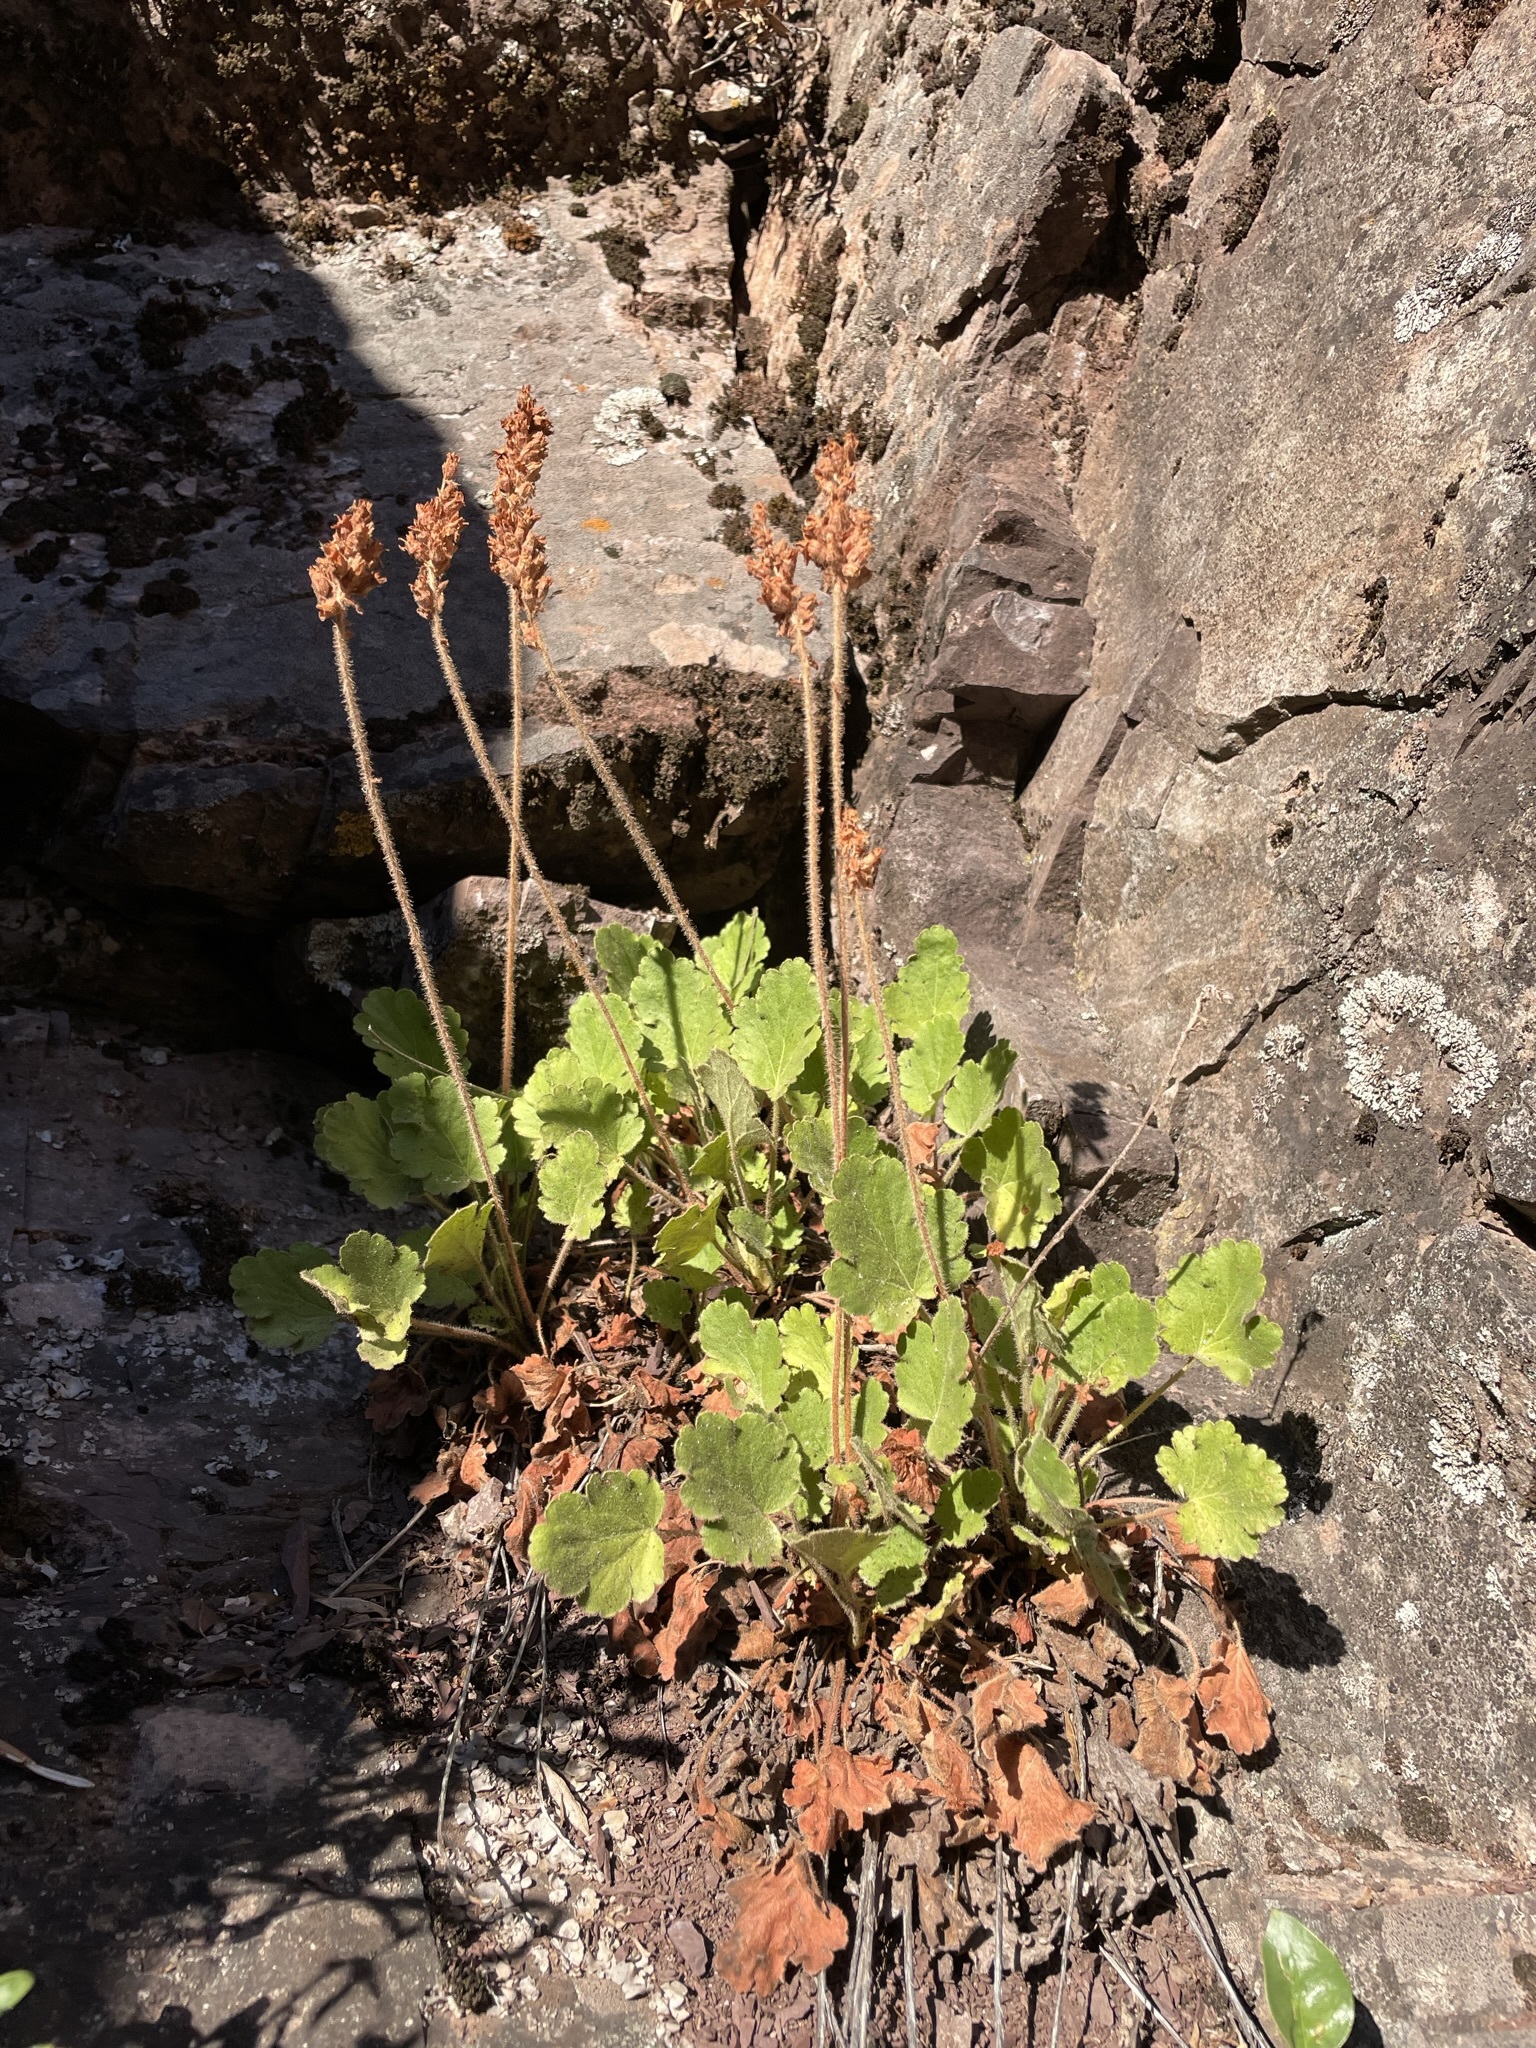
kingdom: Plantae
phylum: Tracheophyta
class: Magnoliopsida
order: Saxifragales
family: Saxifragaceae
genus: Heuchera
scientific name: Heuchera cylindrica
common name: Mat alumroot
